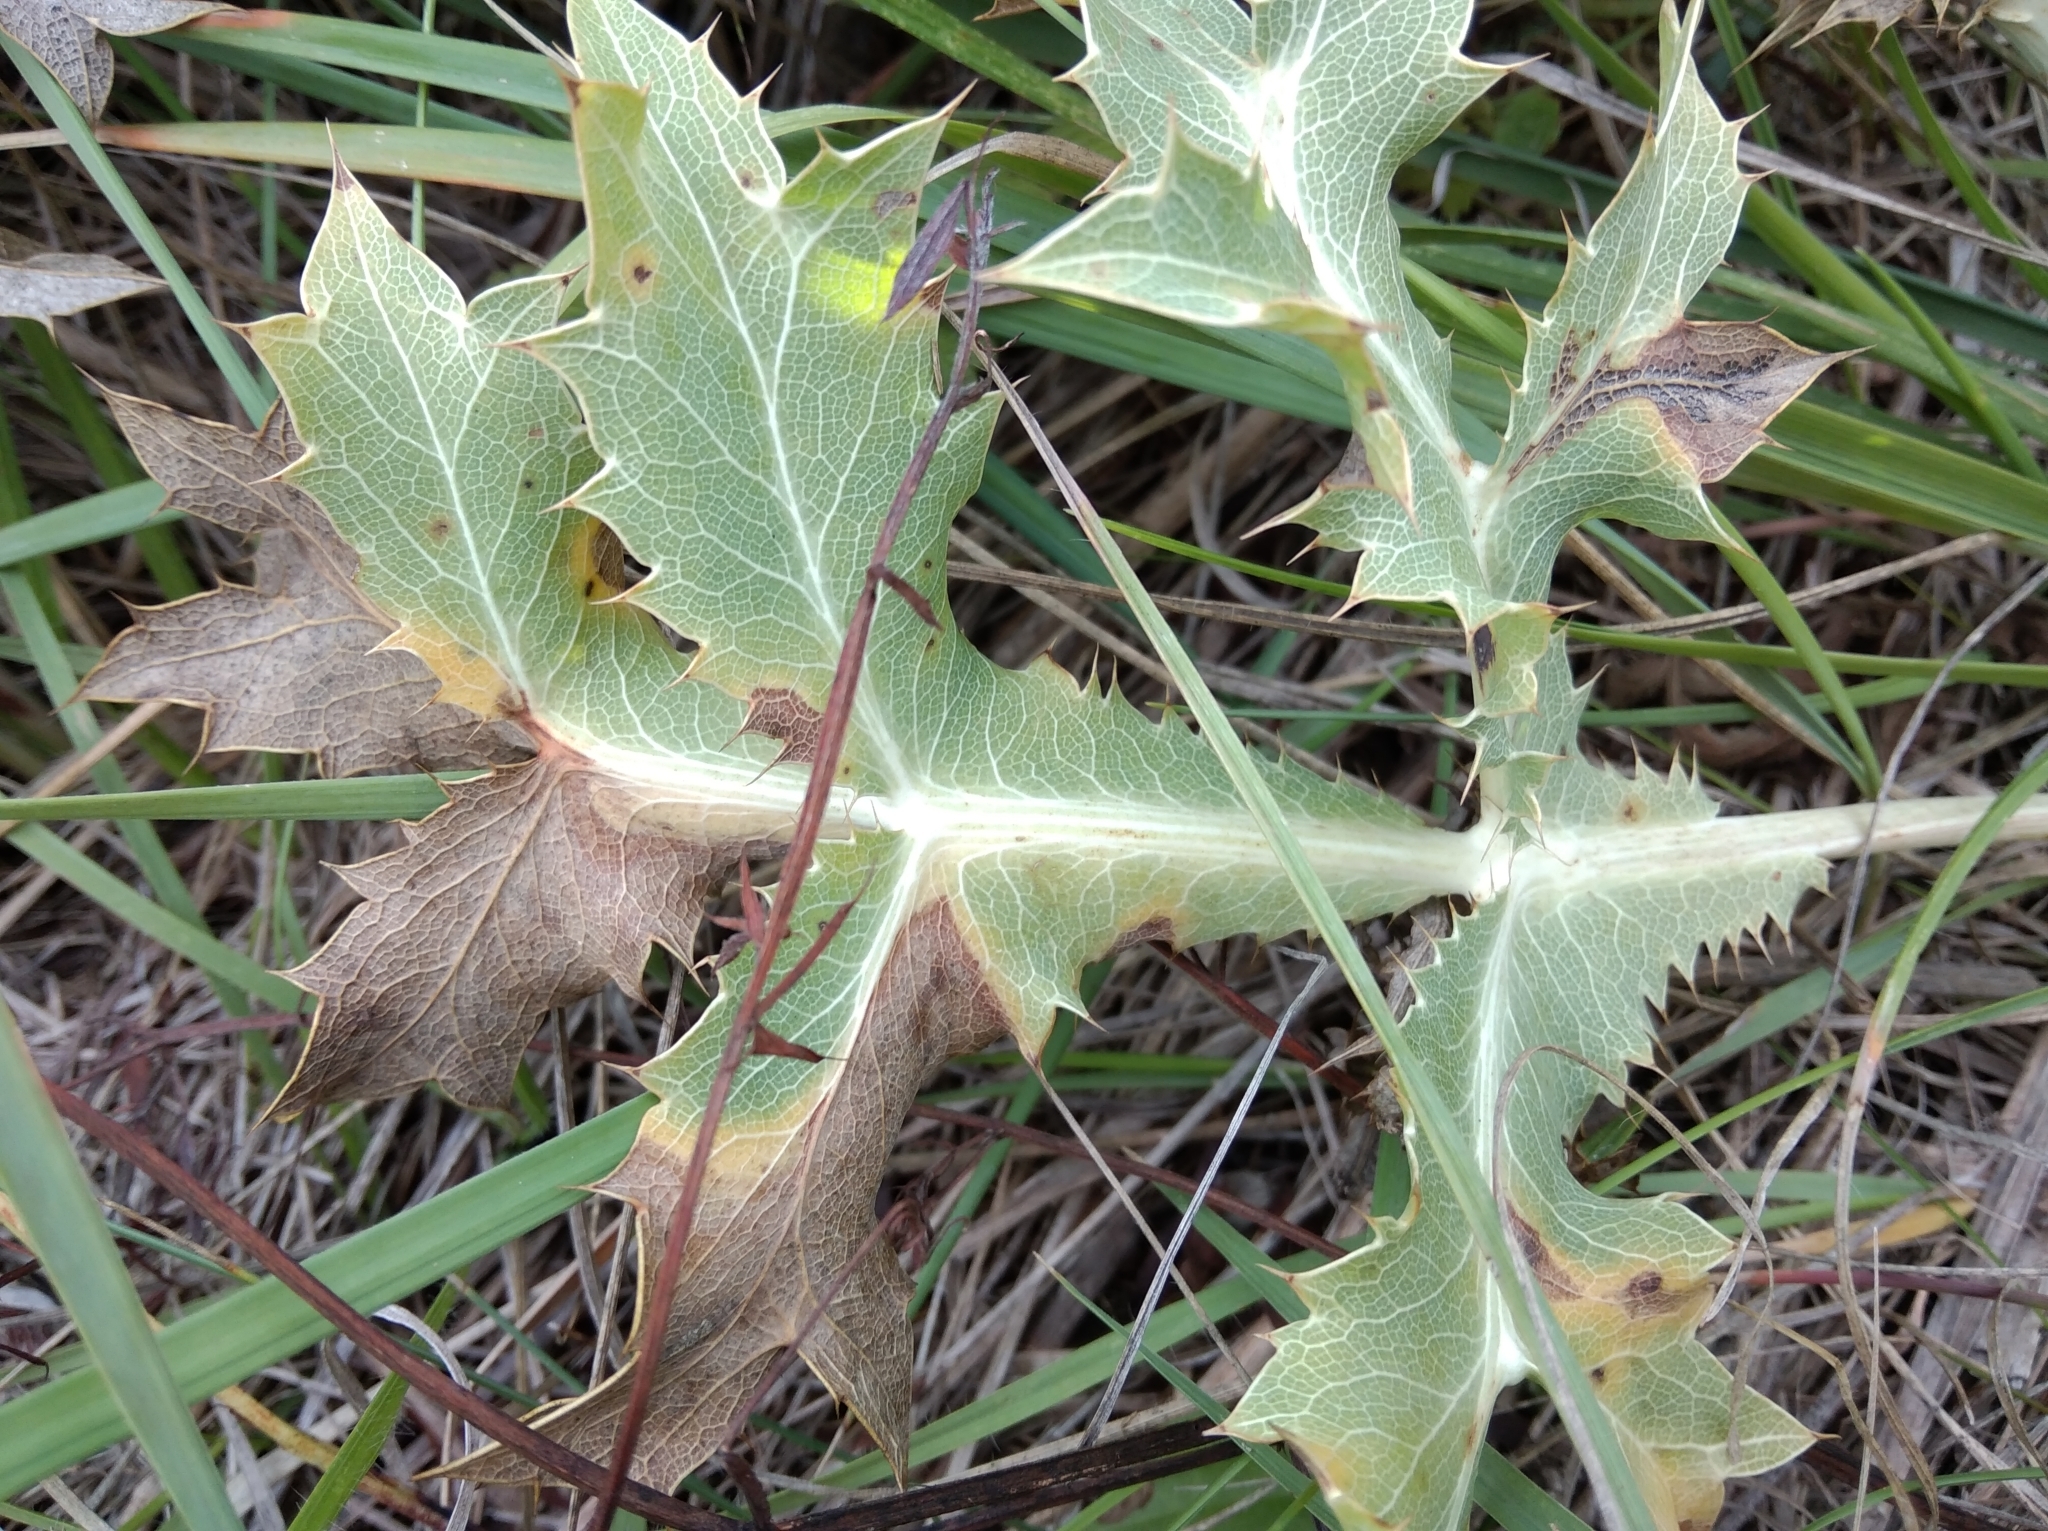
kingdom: Plantae
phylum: Tracheophyta
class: Magnoliopsida
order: Apiales
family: Apiaceae
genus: Eryngium
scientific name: Eryngium campestre
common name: Field eryngo
